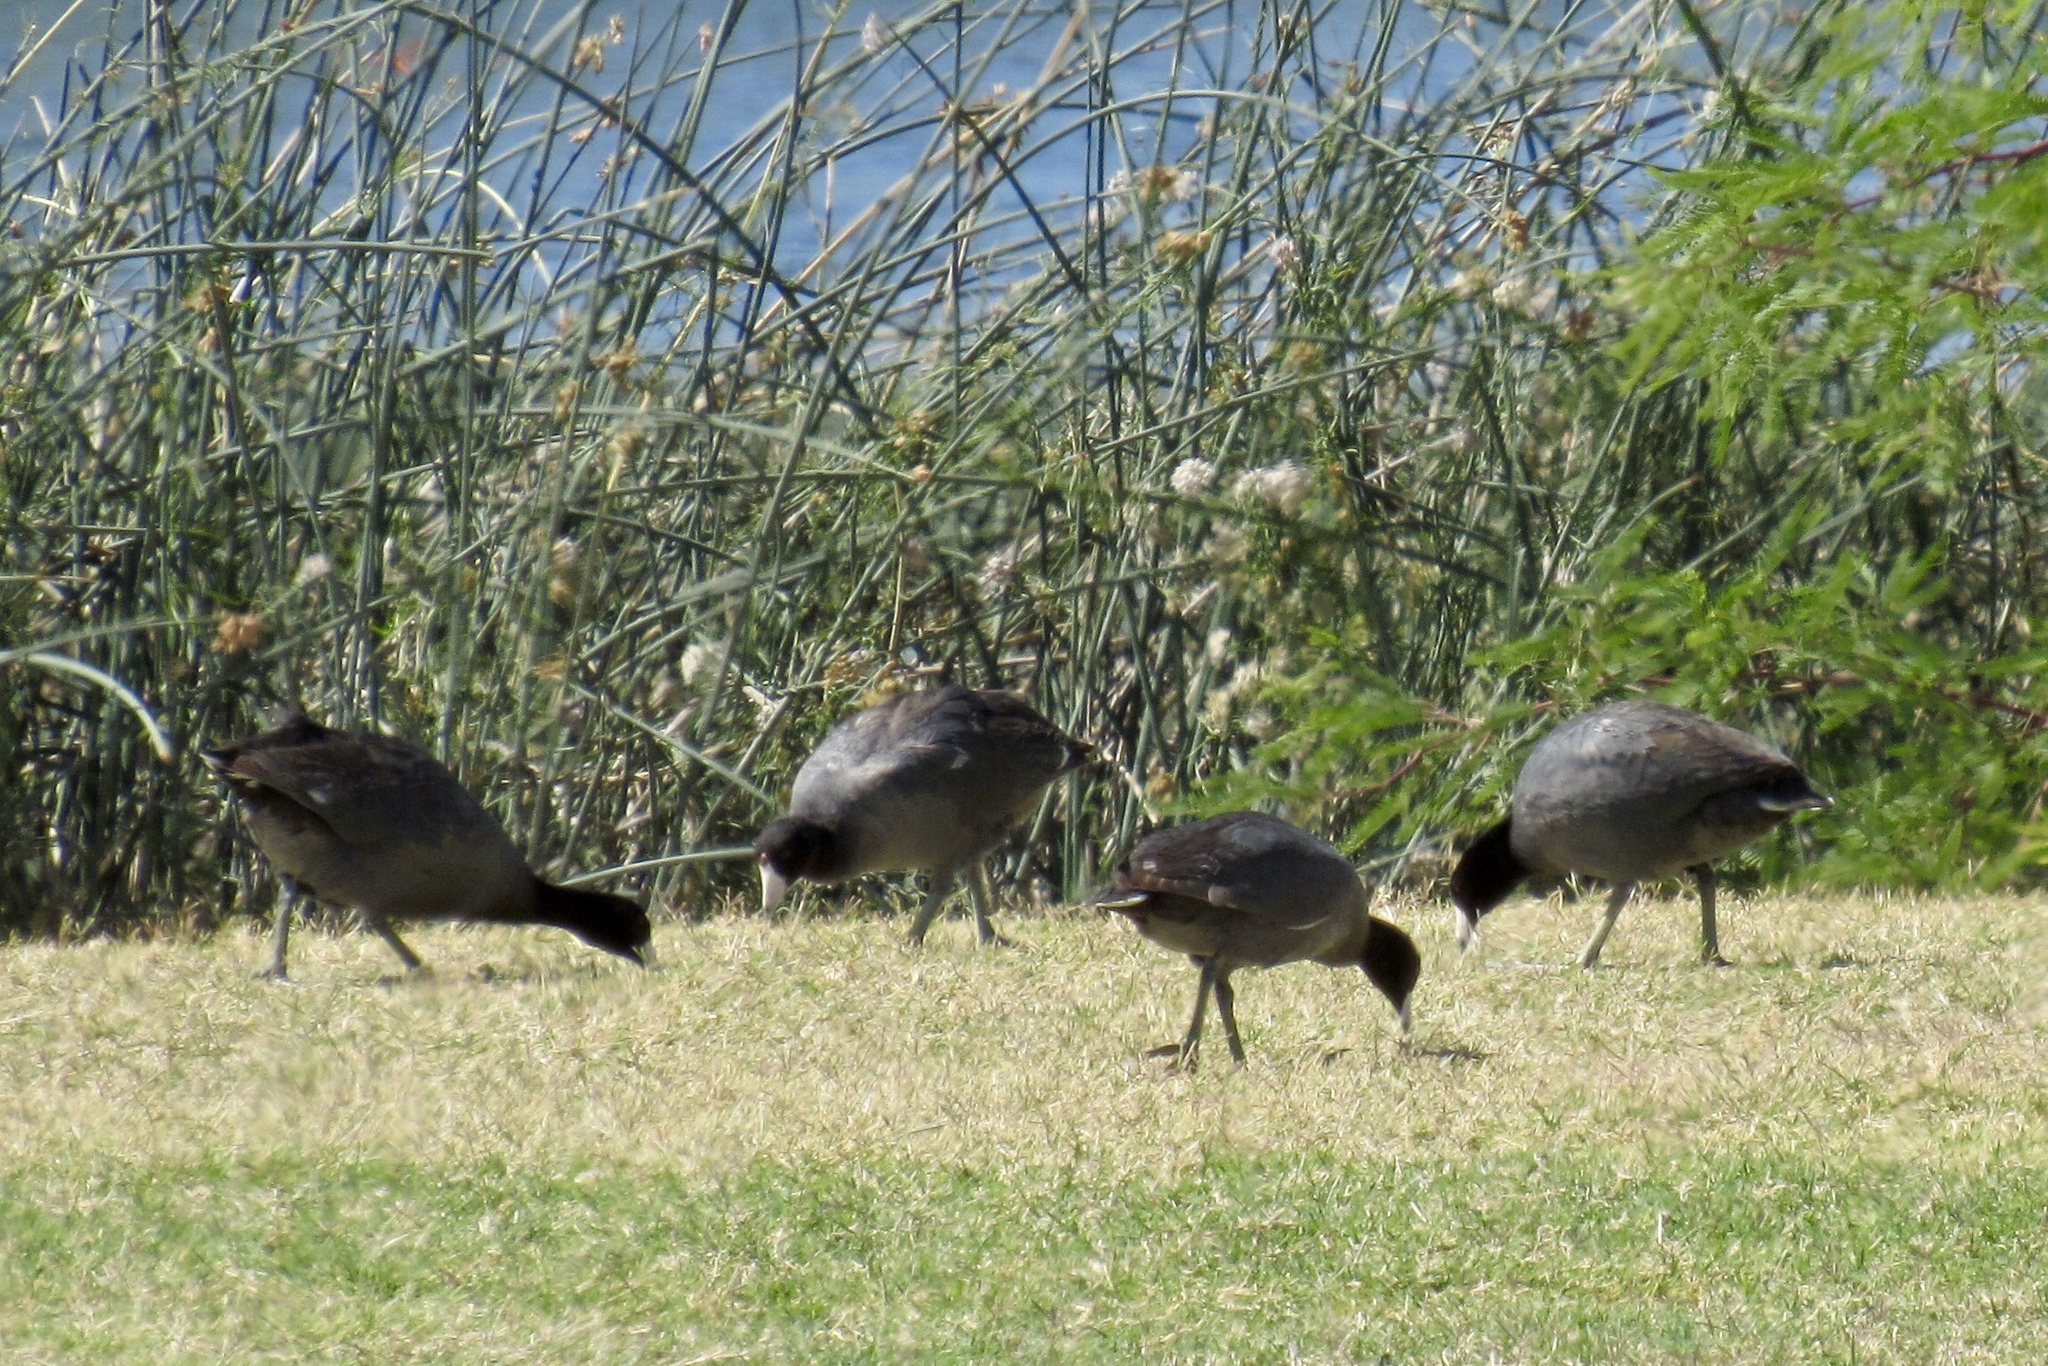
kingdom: Animalia
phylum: Chordata
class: Aves
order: Gruiformes
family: Rallidae
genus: Fulica
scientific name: Fulica americana
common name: American coot
